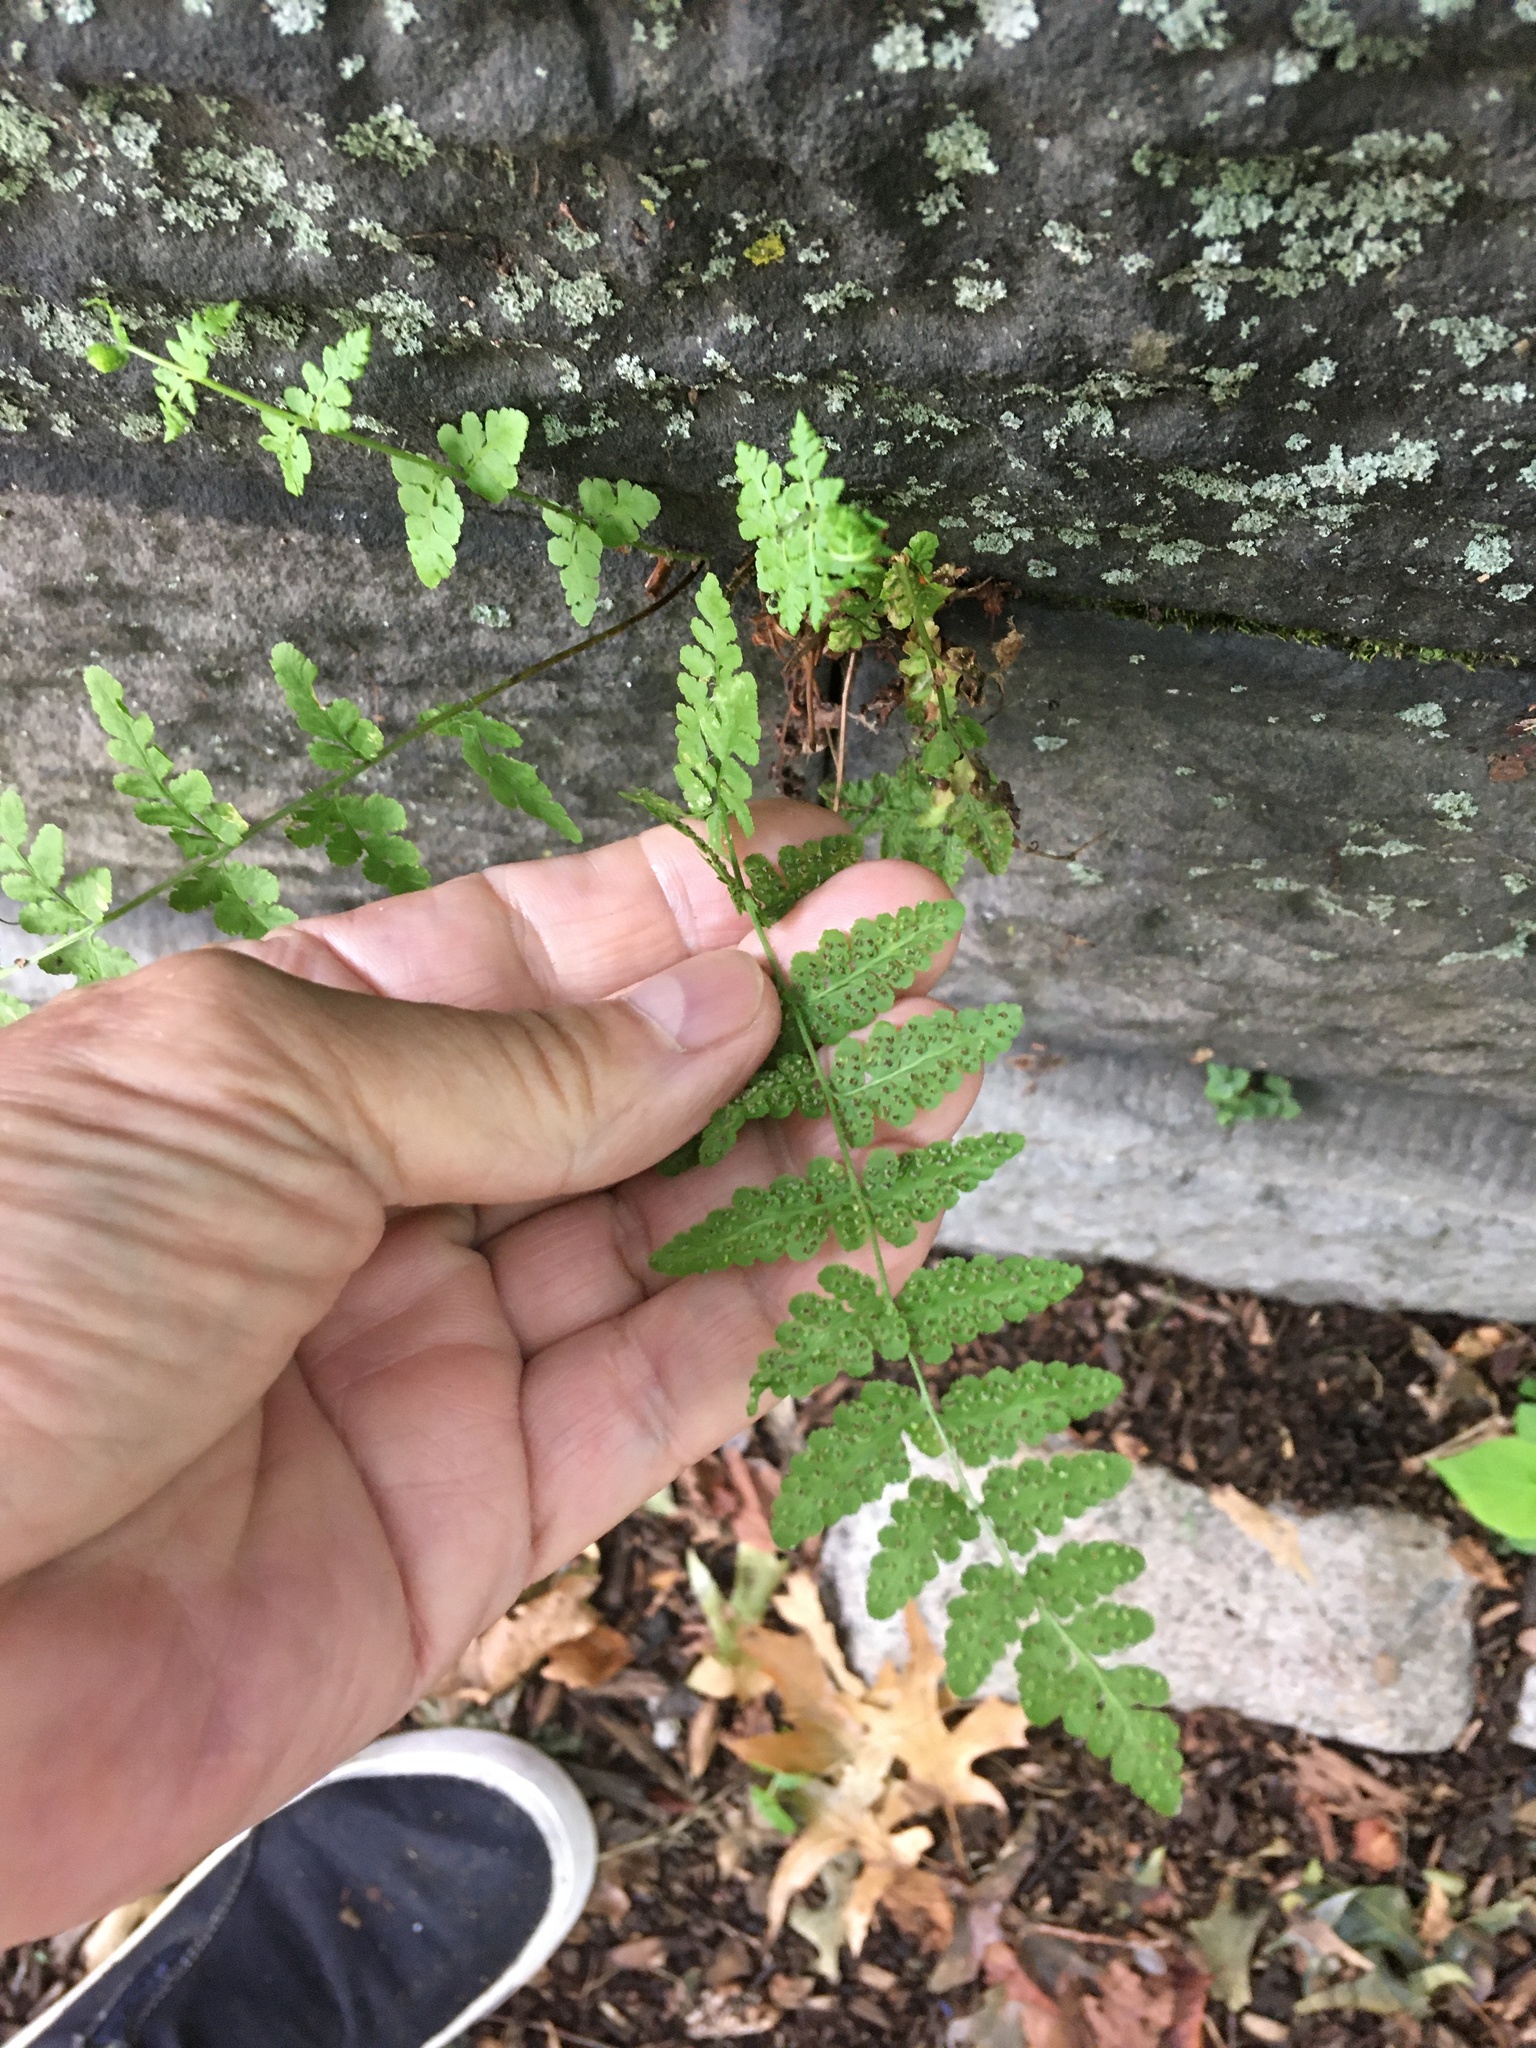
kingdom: Plantae
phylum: Tracheophyta
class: Polypodiopsida
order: Polypodiales
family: Woodsiaceae
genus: Physematium
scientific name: Physematium obtusum
